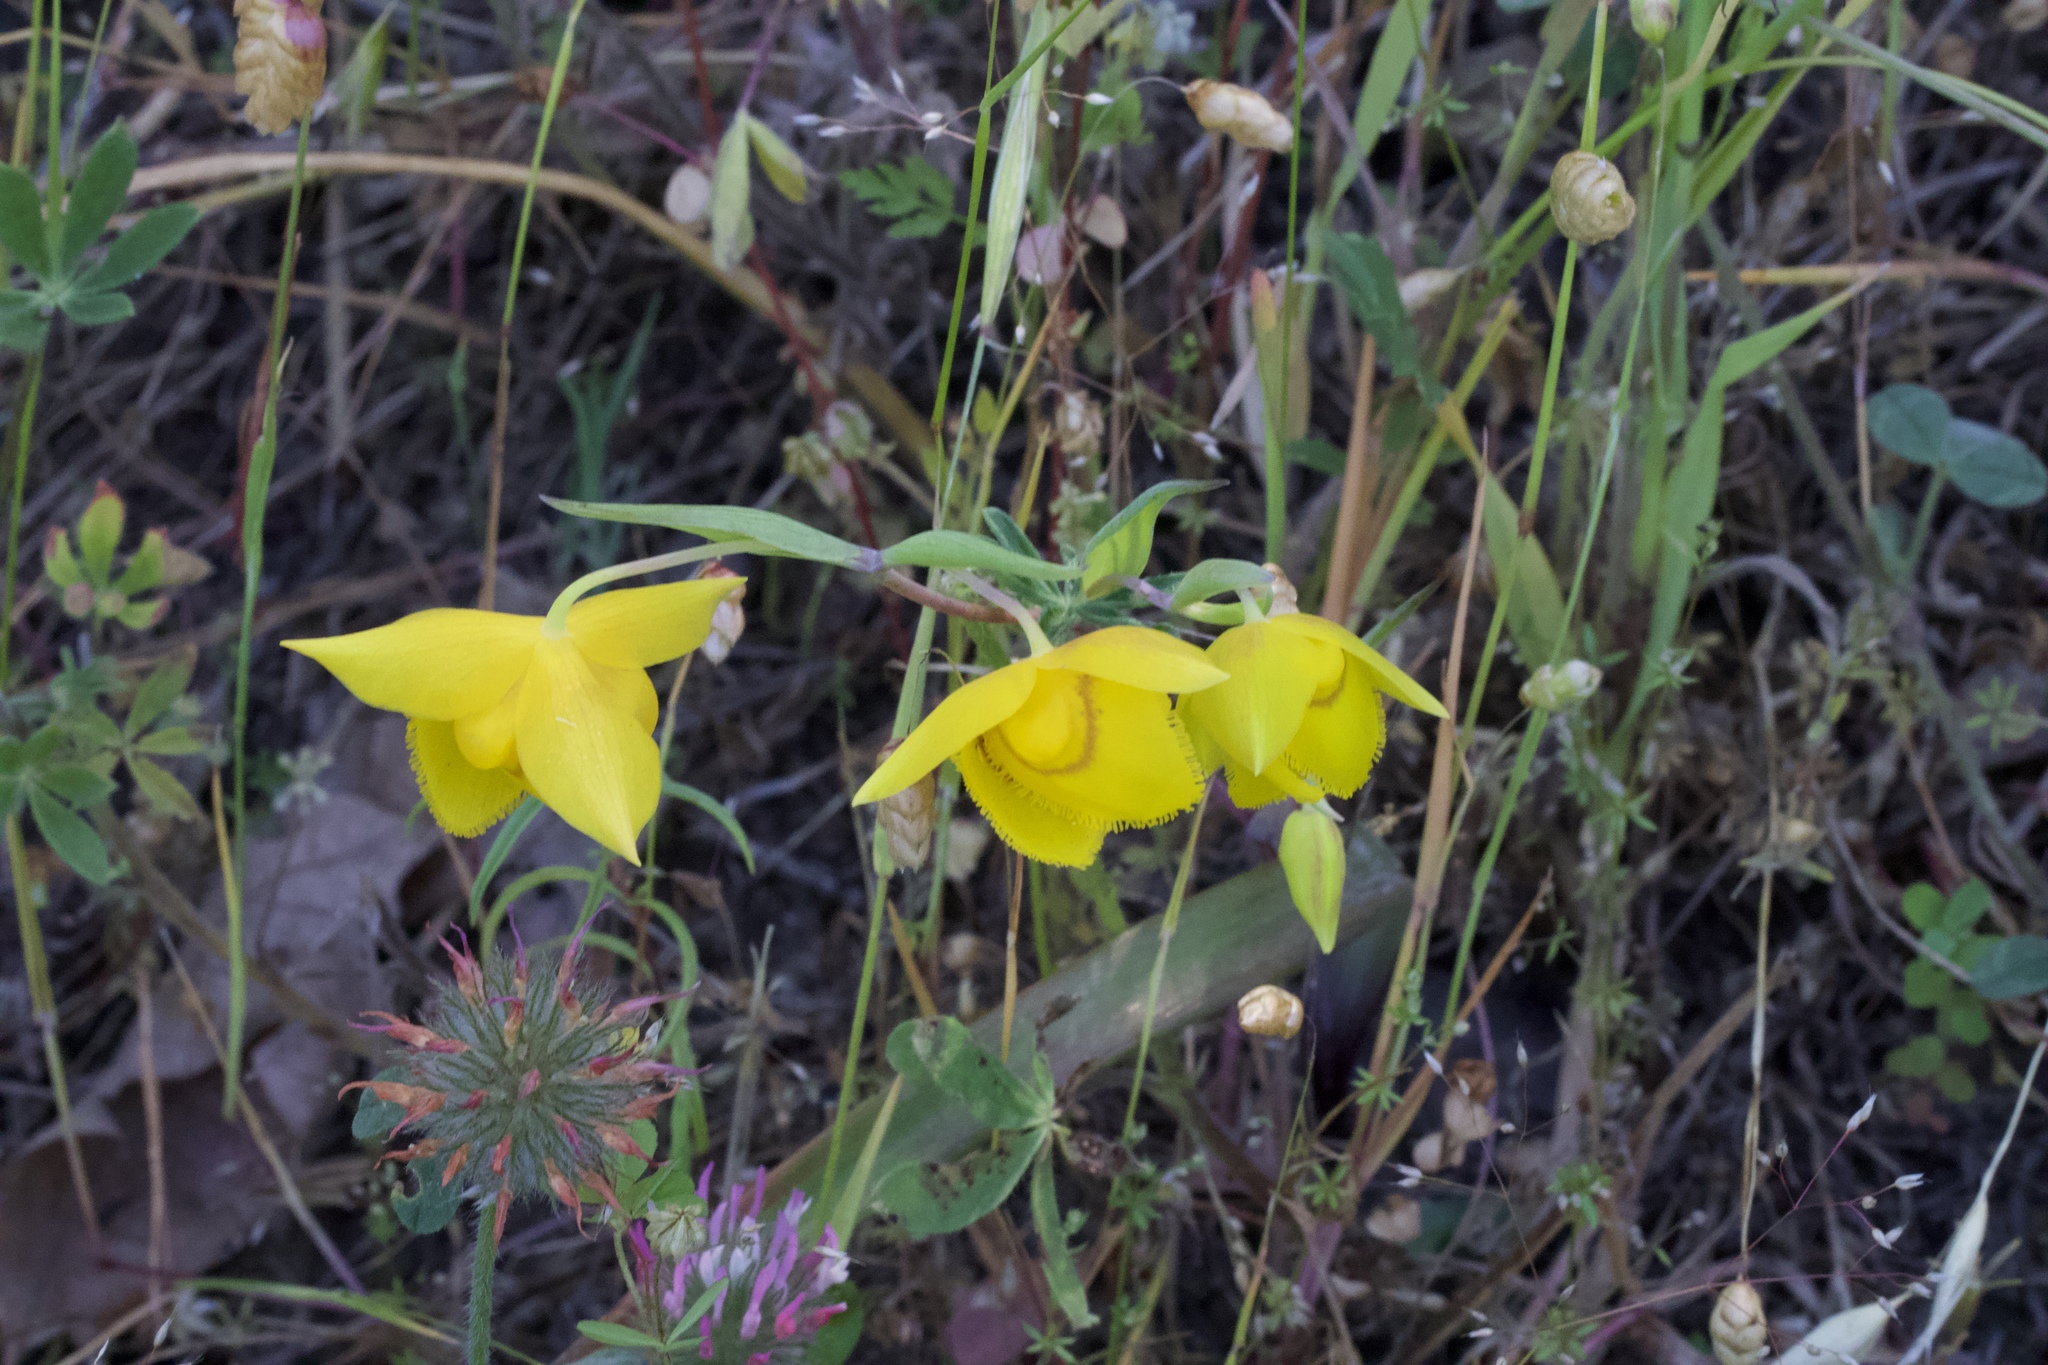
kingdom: Plantae
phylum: Tracheophyta
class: Liliopsida
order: Liliales
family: Liliaceae
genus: Calochortus
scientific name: Calochortus amabilis
